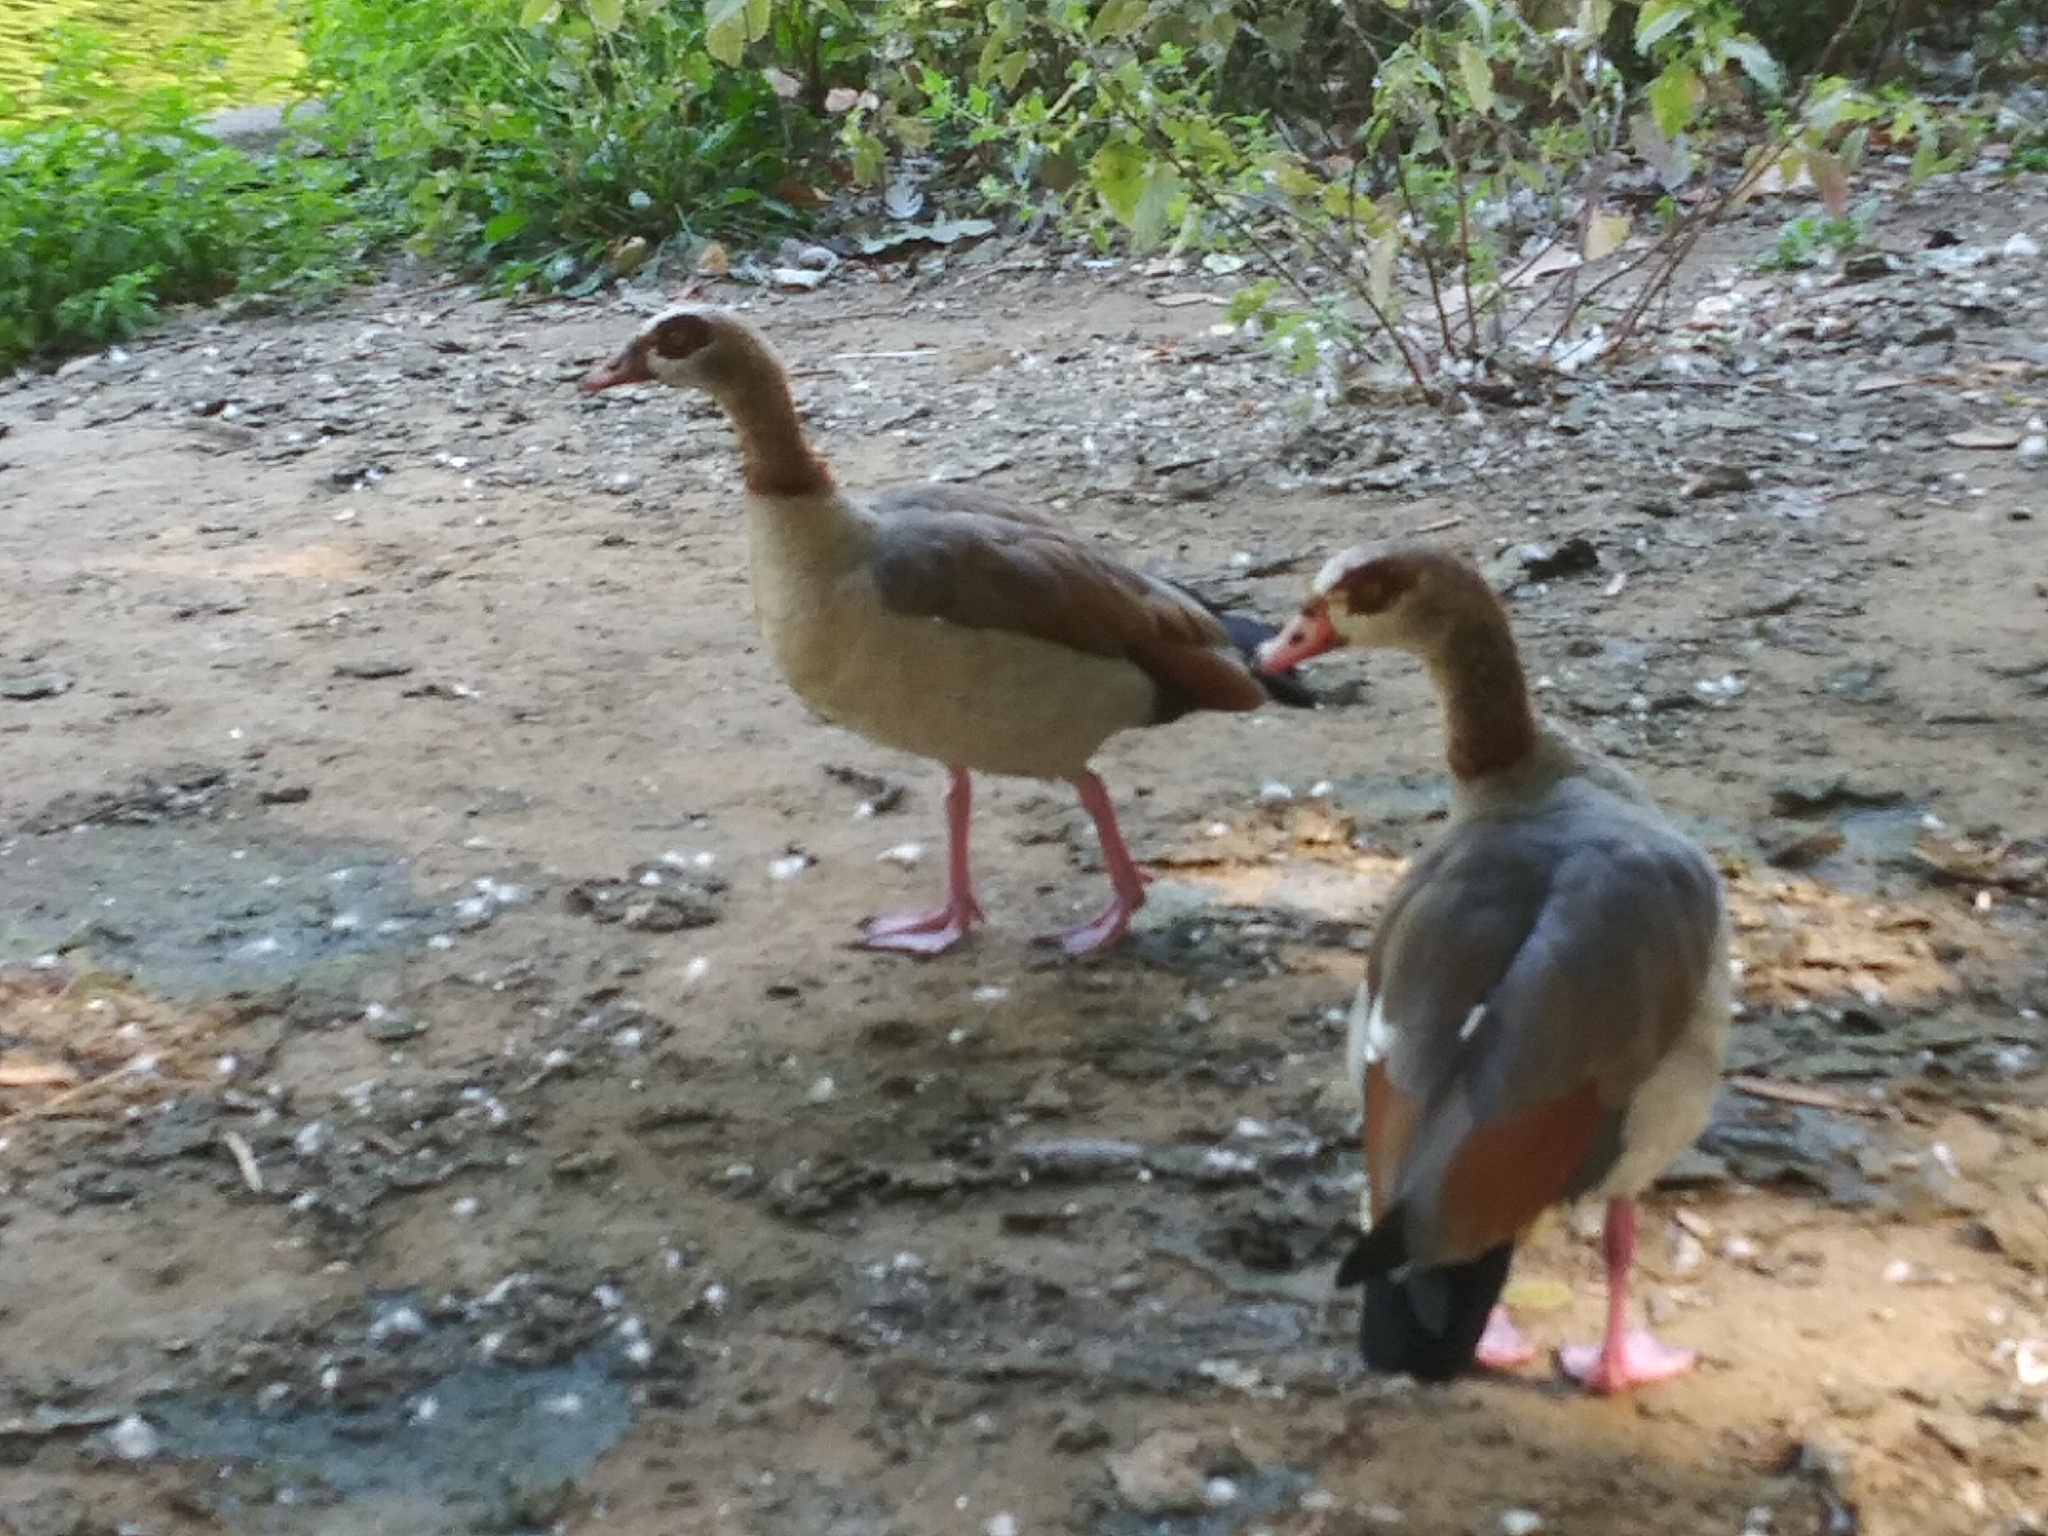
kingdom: Animalia
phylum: Chordata
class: Aves
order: Anseriformes
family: Anatidae
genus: Alopochen
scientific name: Alopochen aegyptiaca
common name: Egyptian goose
